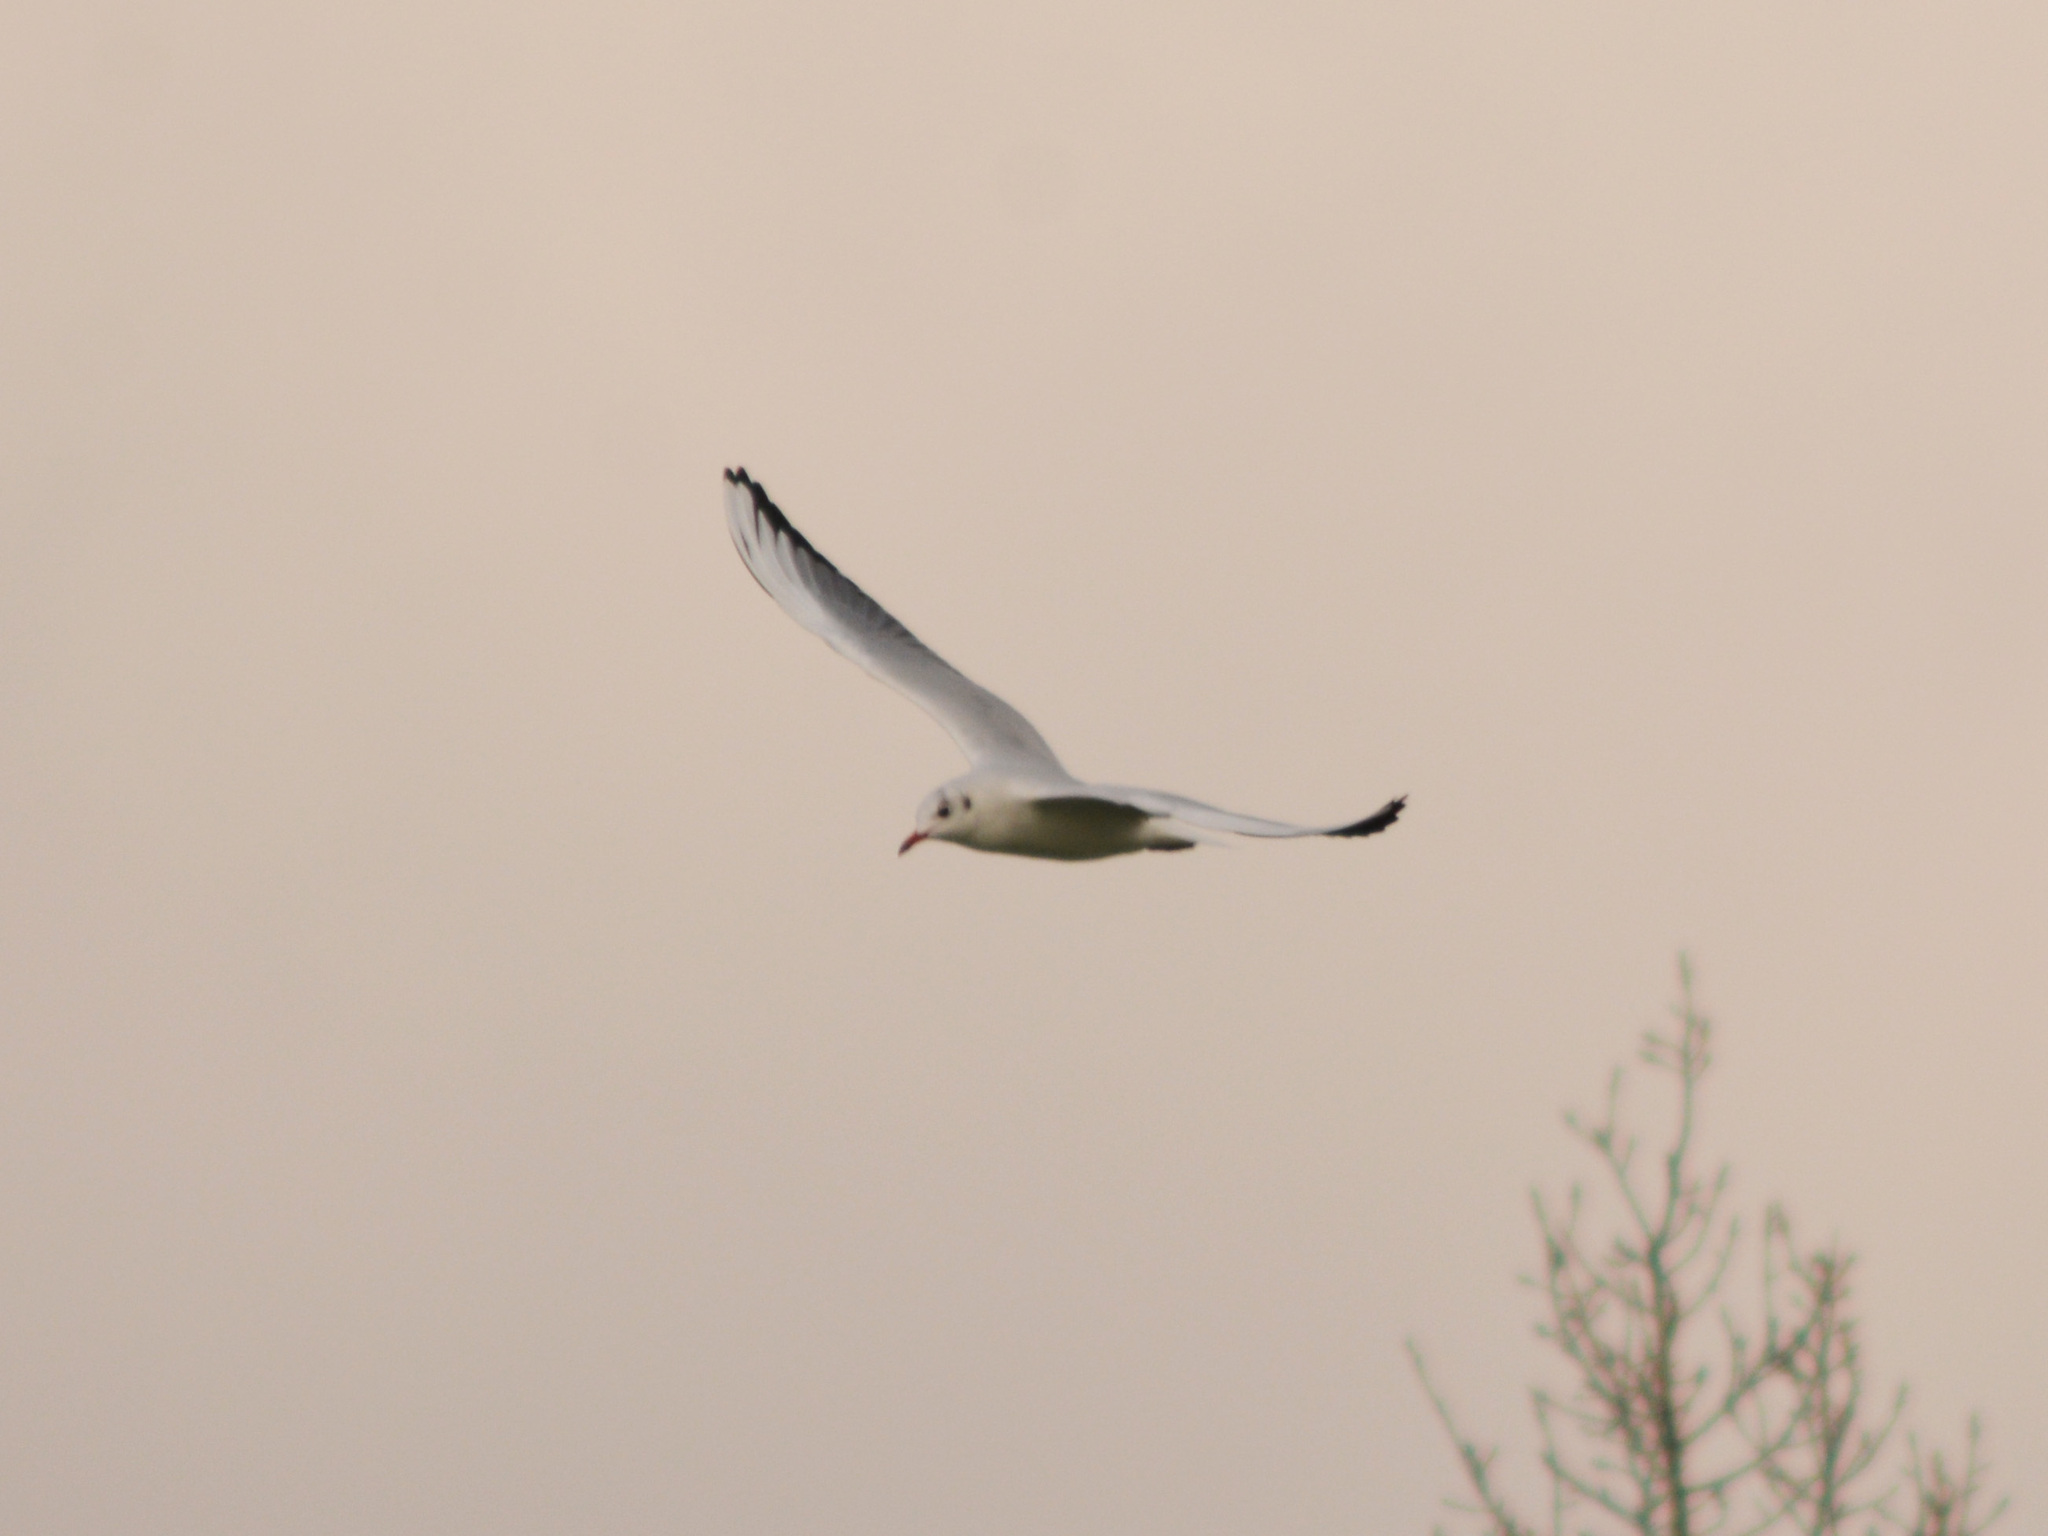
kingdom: Animalia
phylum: Chordata
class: Aves
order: Charadriiformes
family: Laridae
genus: Chroicocephalus
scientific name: Chroicocephalus ridibundus
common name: Black-headed gull
